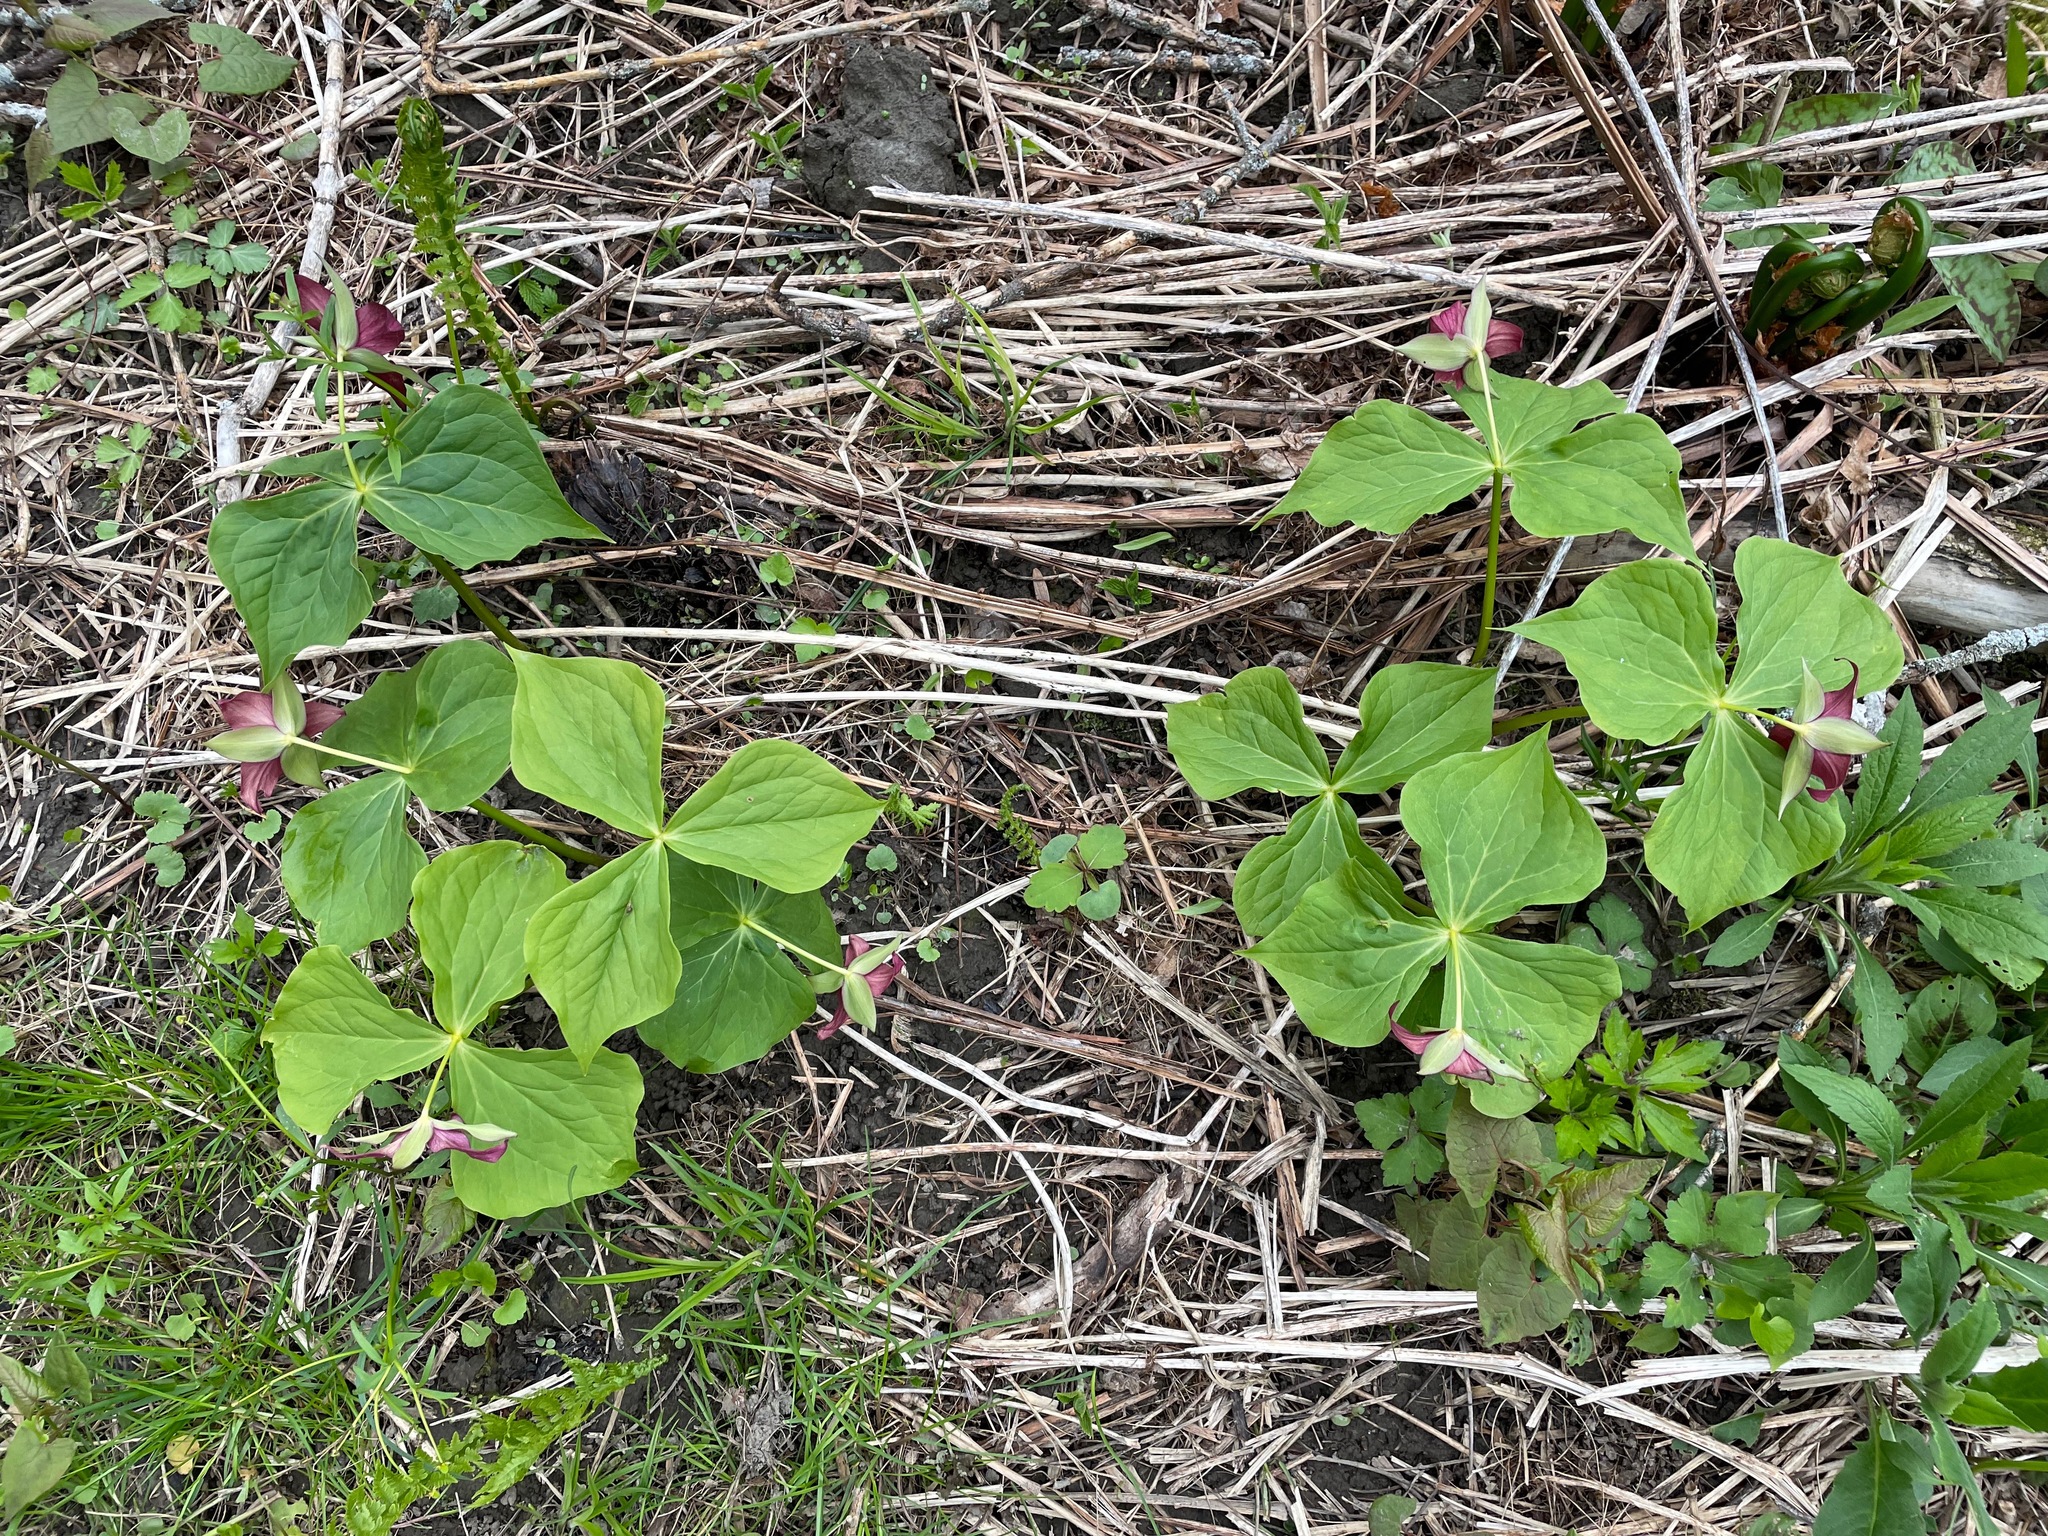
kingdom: Plantae
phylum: Tracheophyta
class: Liliopsida
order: Liliales
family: Melanthiaceae
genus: Trillium
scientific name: Trillium erectum
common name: Purple trillium
